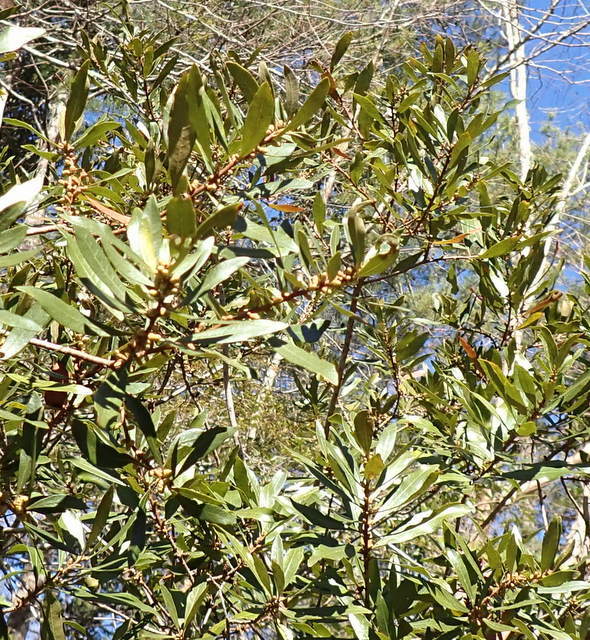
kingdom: Plantae
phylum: Tracheophyta
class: Magnoliopsida
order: Fagales
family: Myricaceae
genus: Morella
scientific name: Morella cerifera
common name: Wax myrtle
